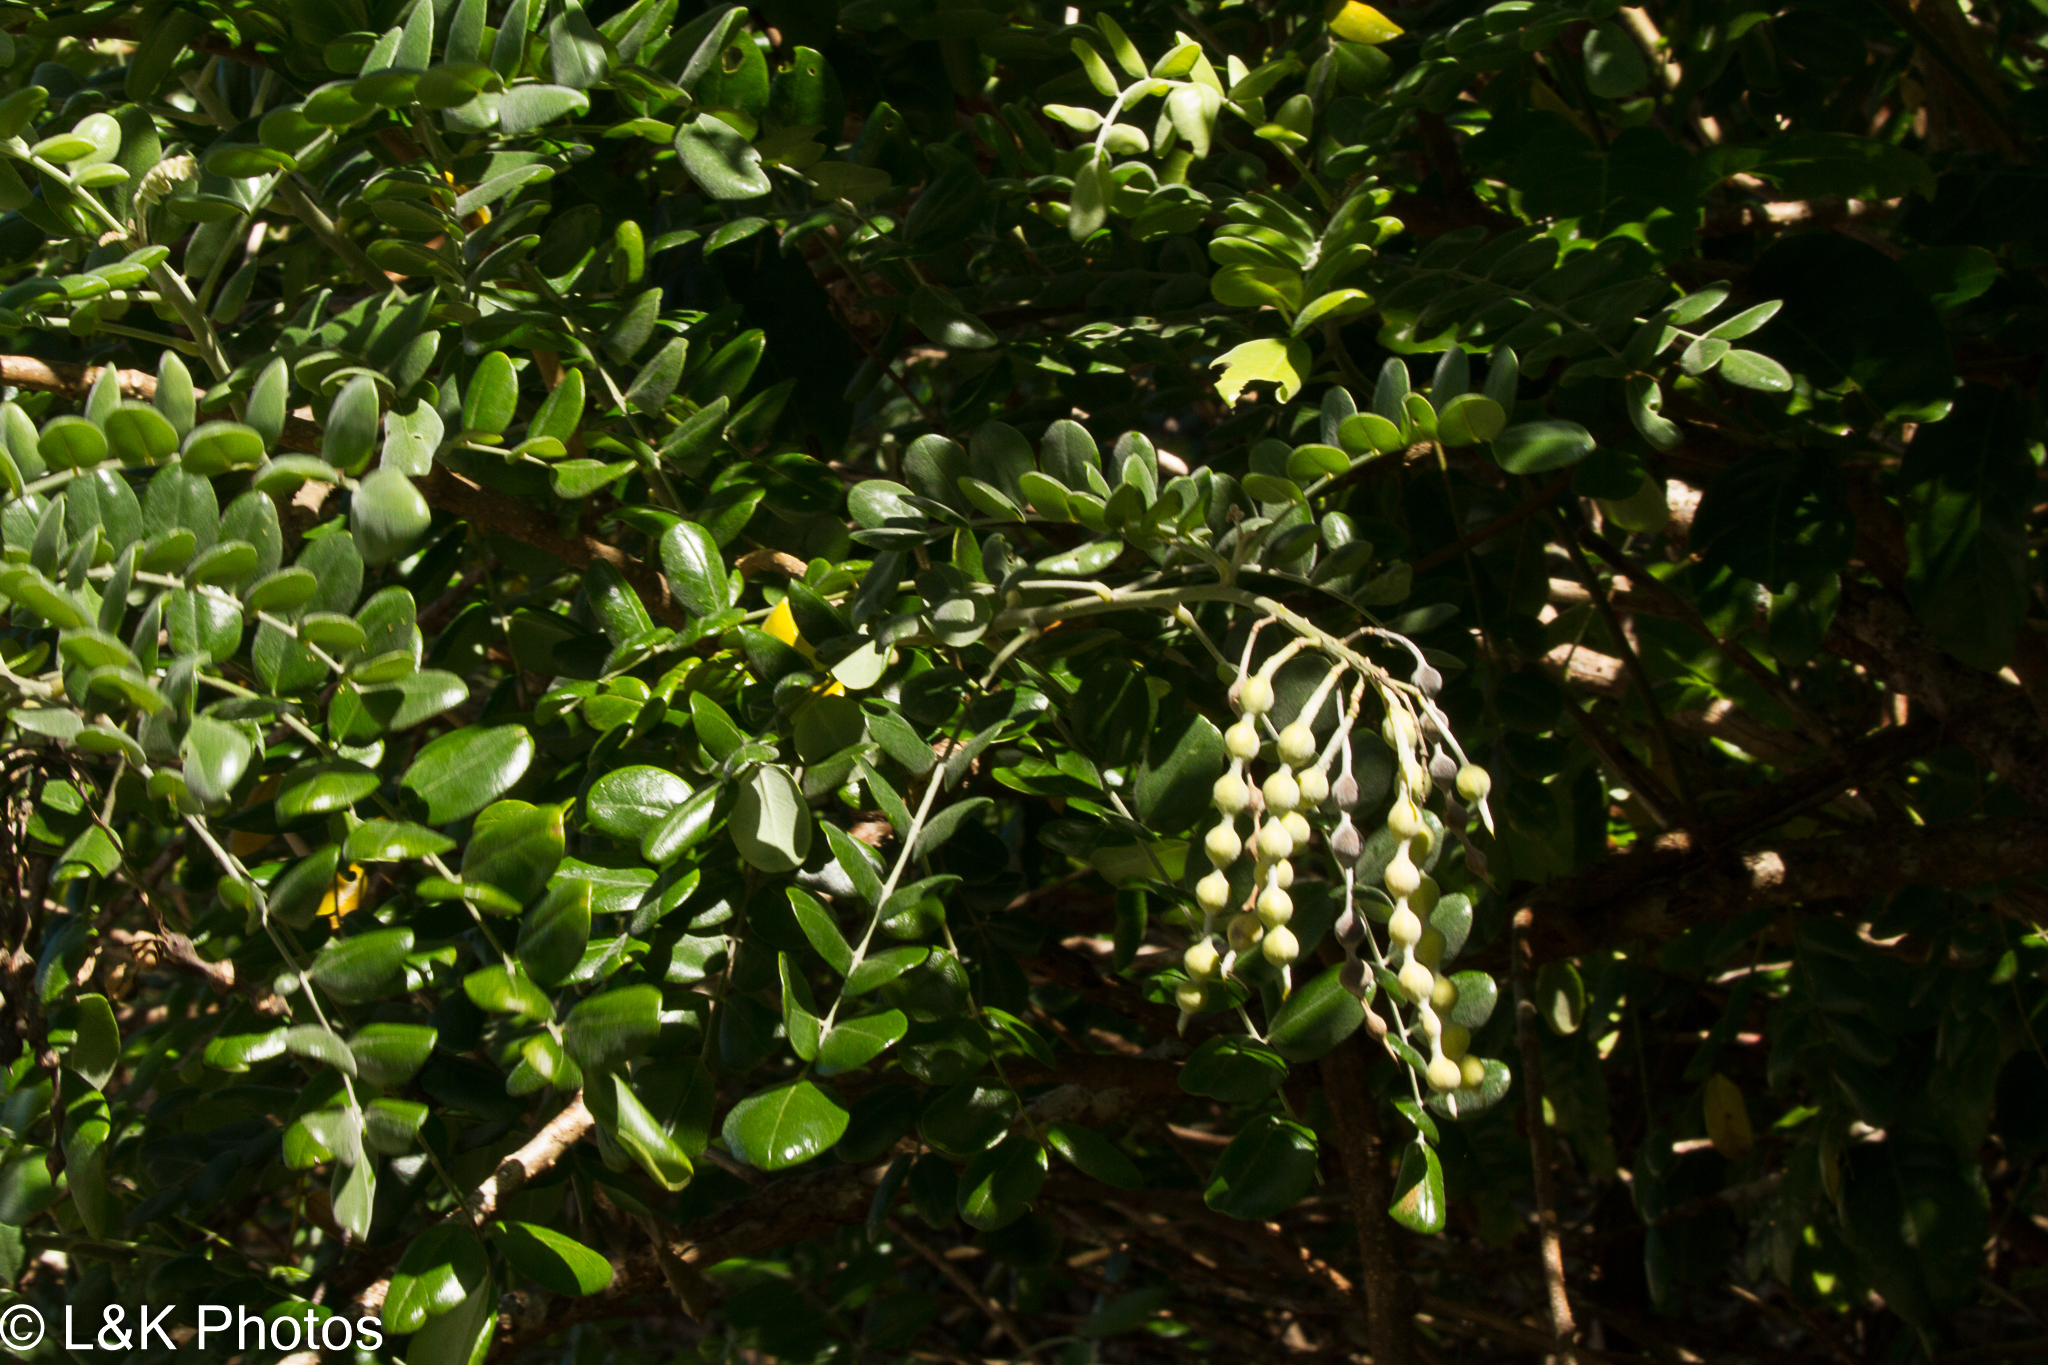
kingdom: Plantae
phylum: Tracheophyta
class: Magnoliopsida
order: Fabales
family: Fabaceae
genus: Sophora
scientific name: Sophora tomentosa
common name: Yellow necklacepod
